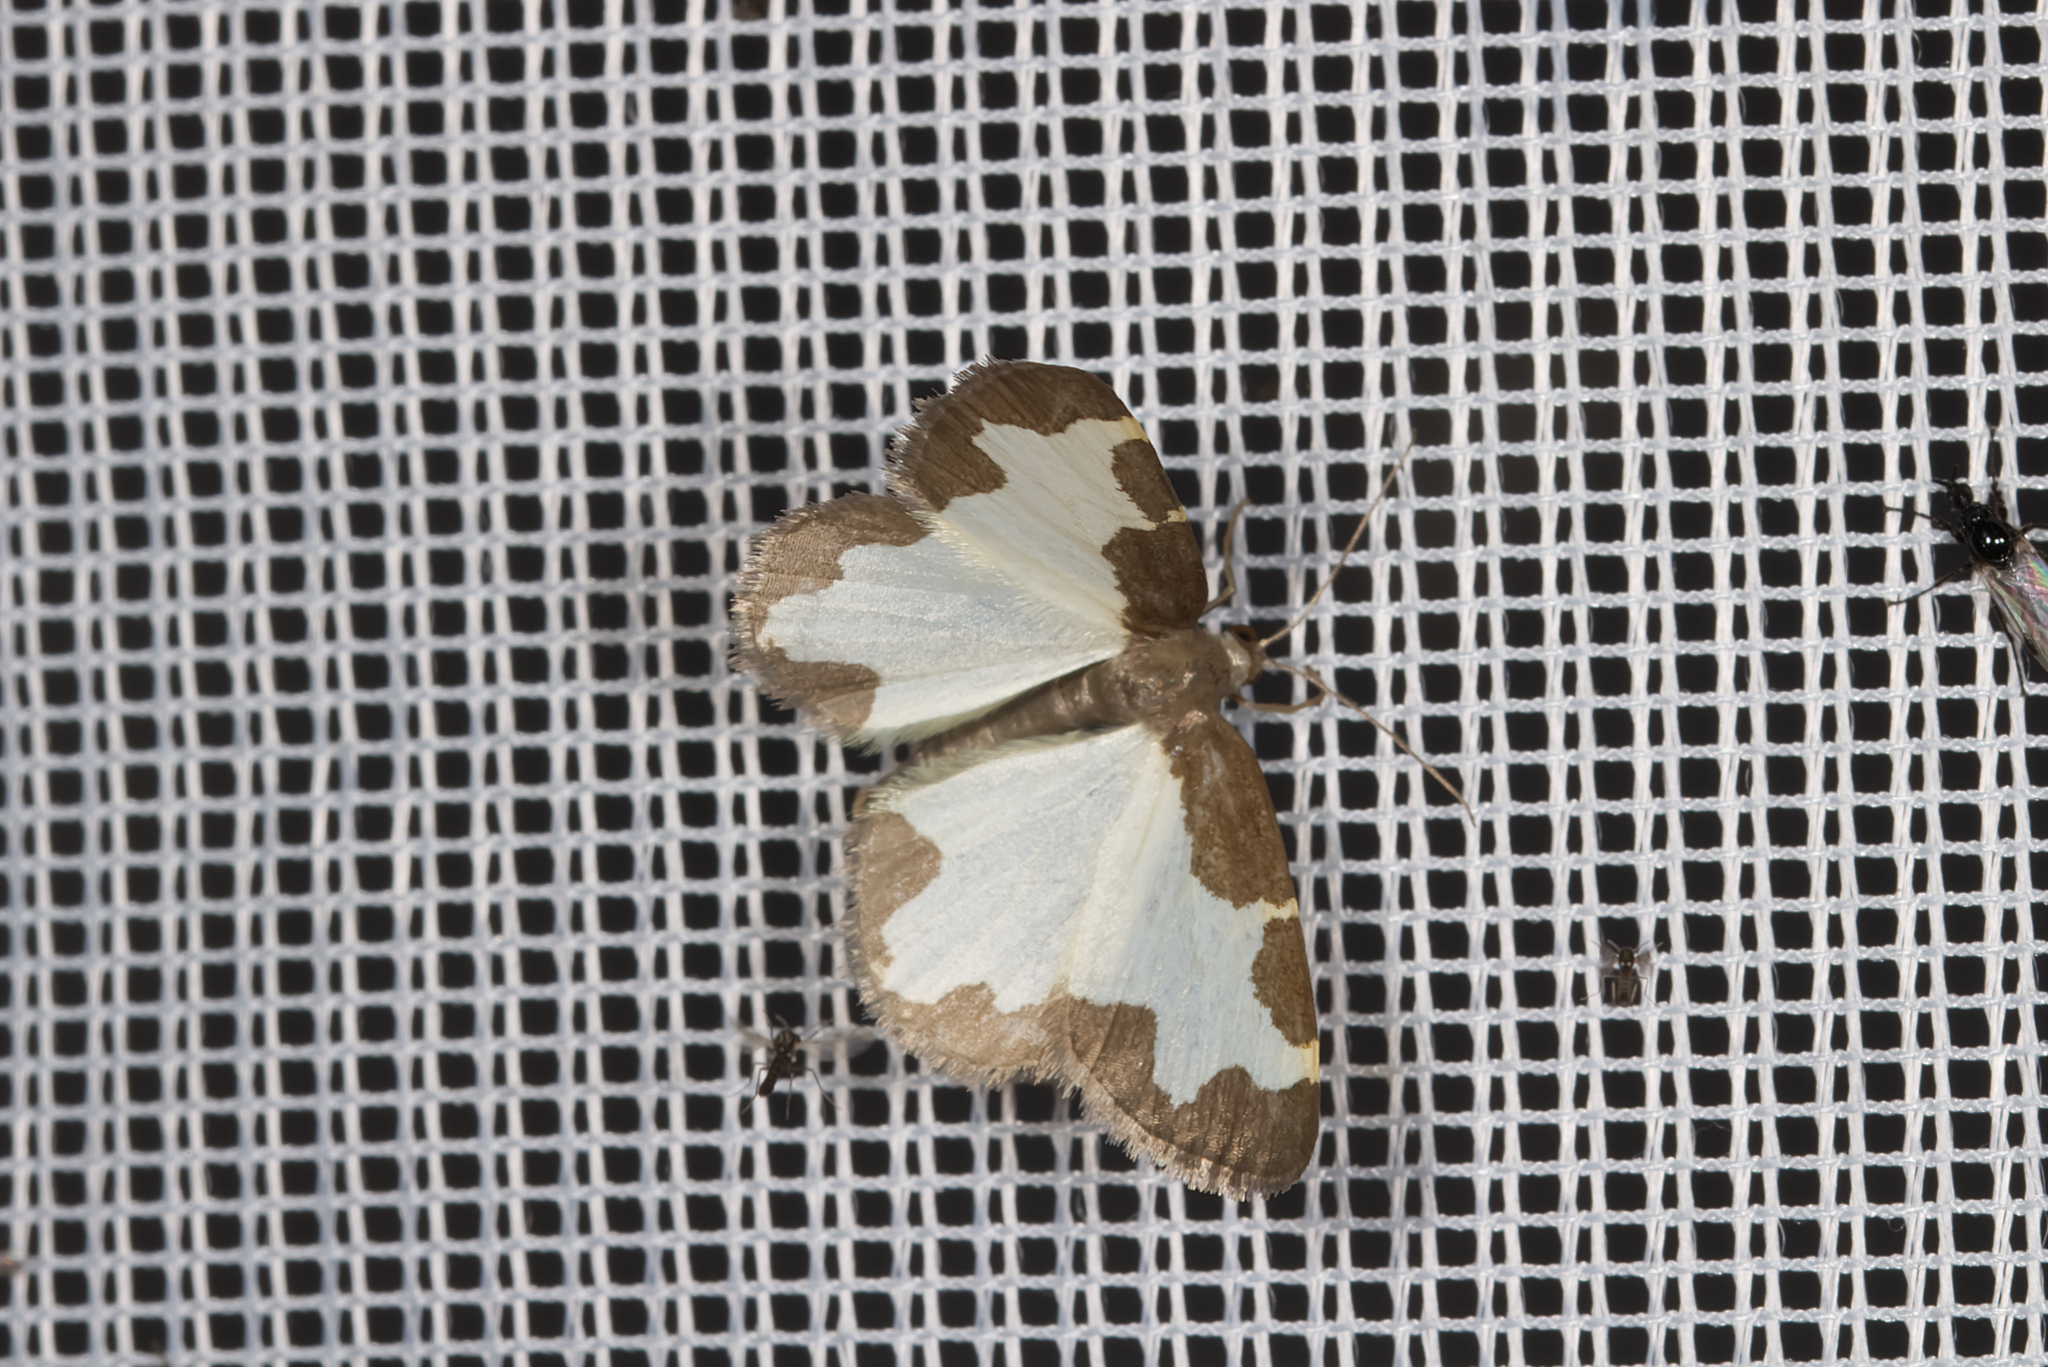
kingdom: Animalia
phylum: Arthropoda
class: Insecta
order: Lepidoptera
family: Geometridae
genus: Lomaspilis
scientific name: Lomaspilis marginata
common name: Clouded border
